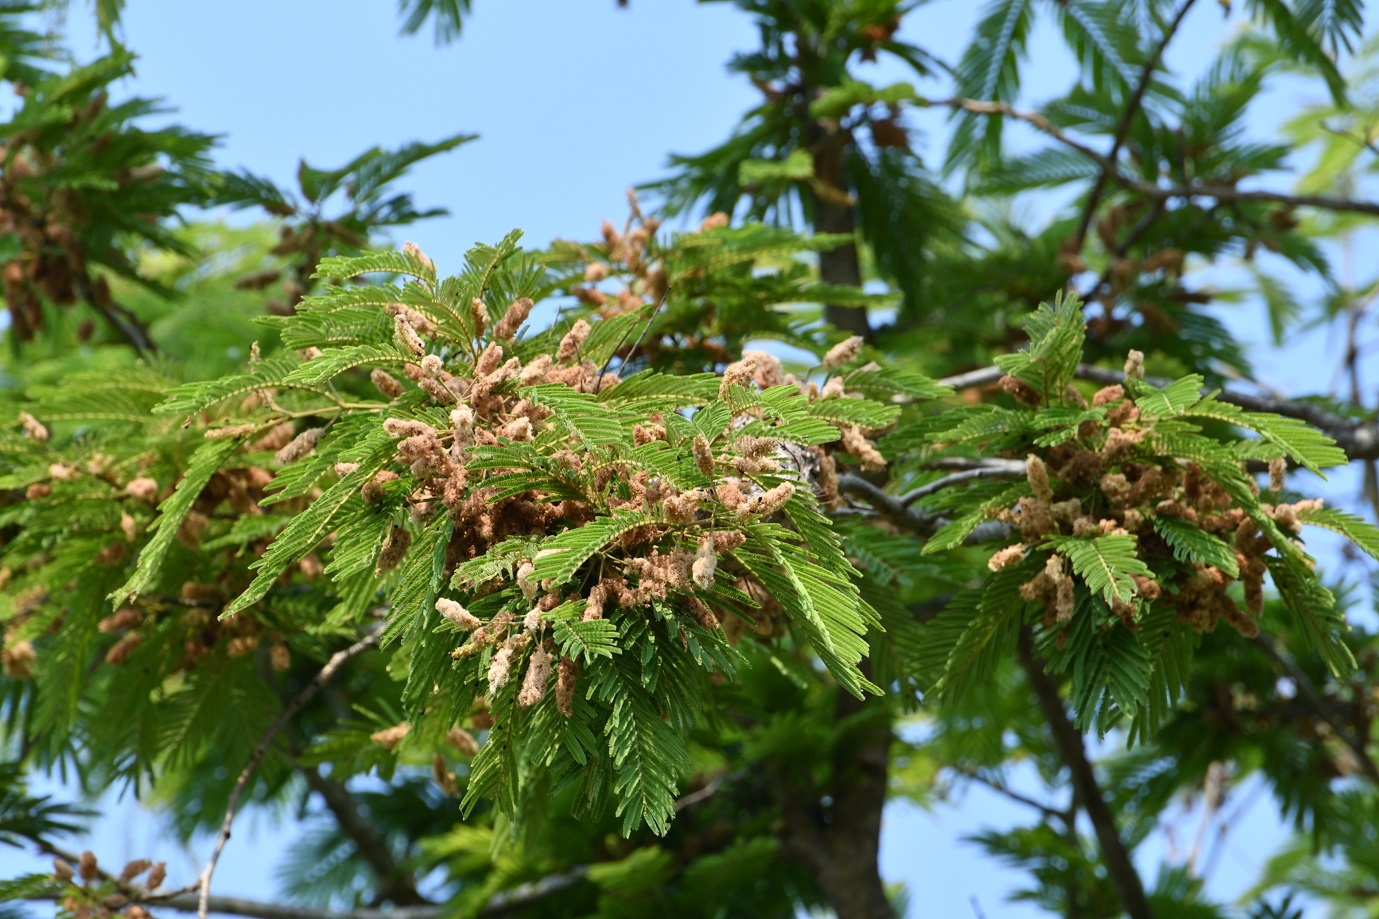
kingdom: Plantae
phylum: Tracheophyta
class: Magnoliopsida
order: Fabales
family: Fabaceae
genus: Lysiloma
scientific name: Lysiloma auritum
